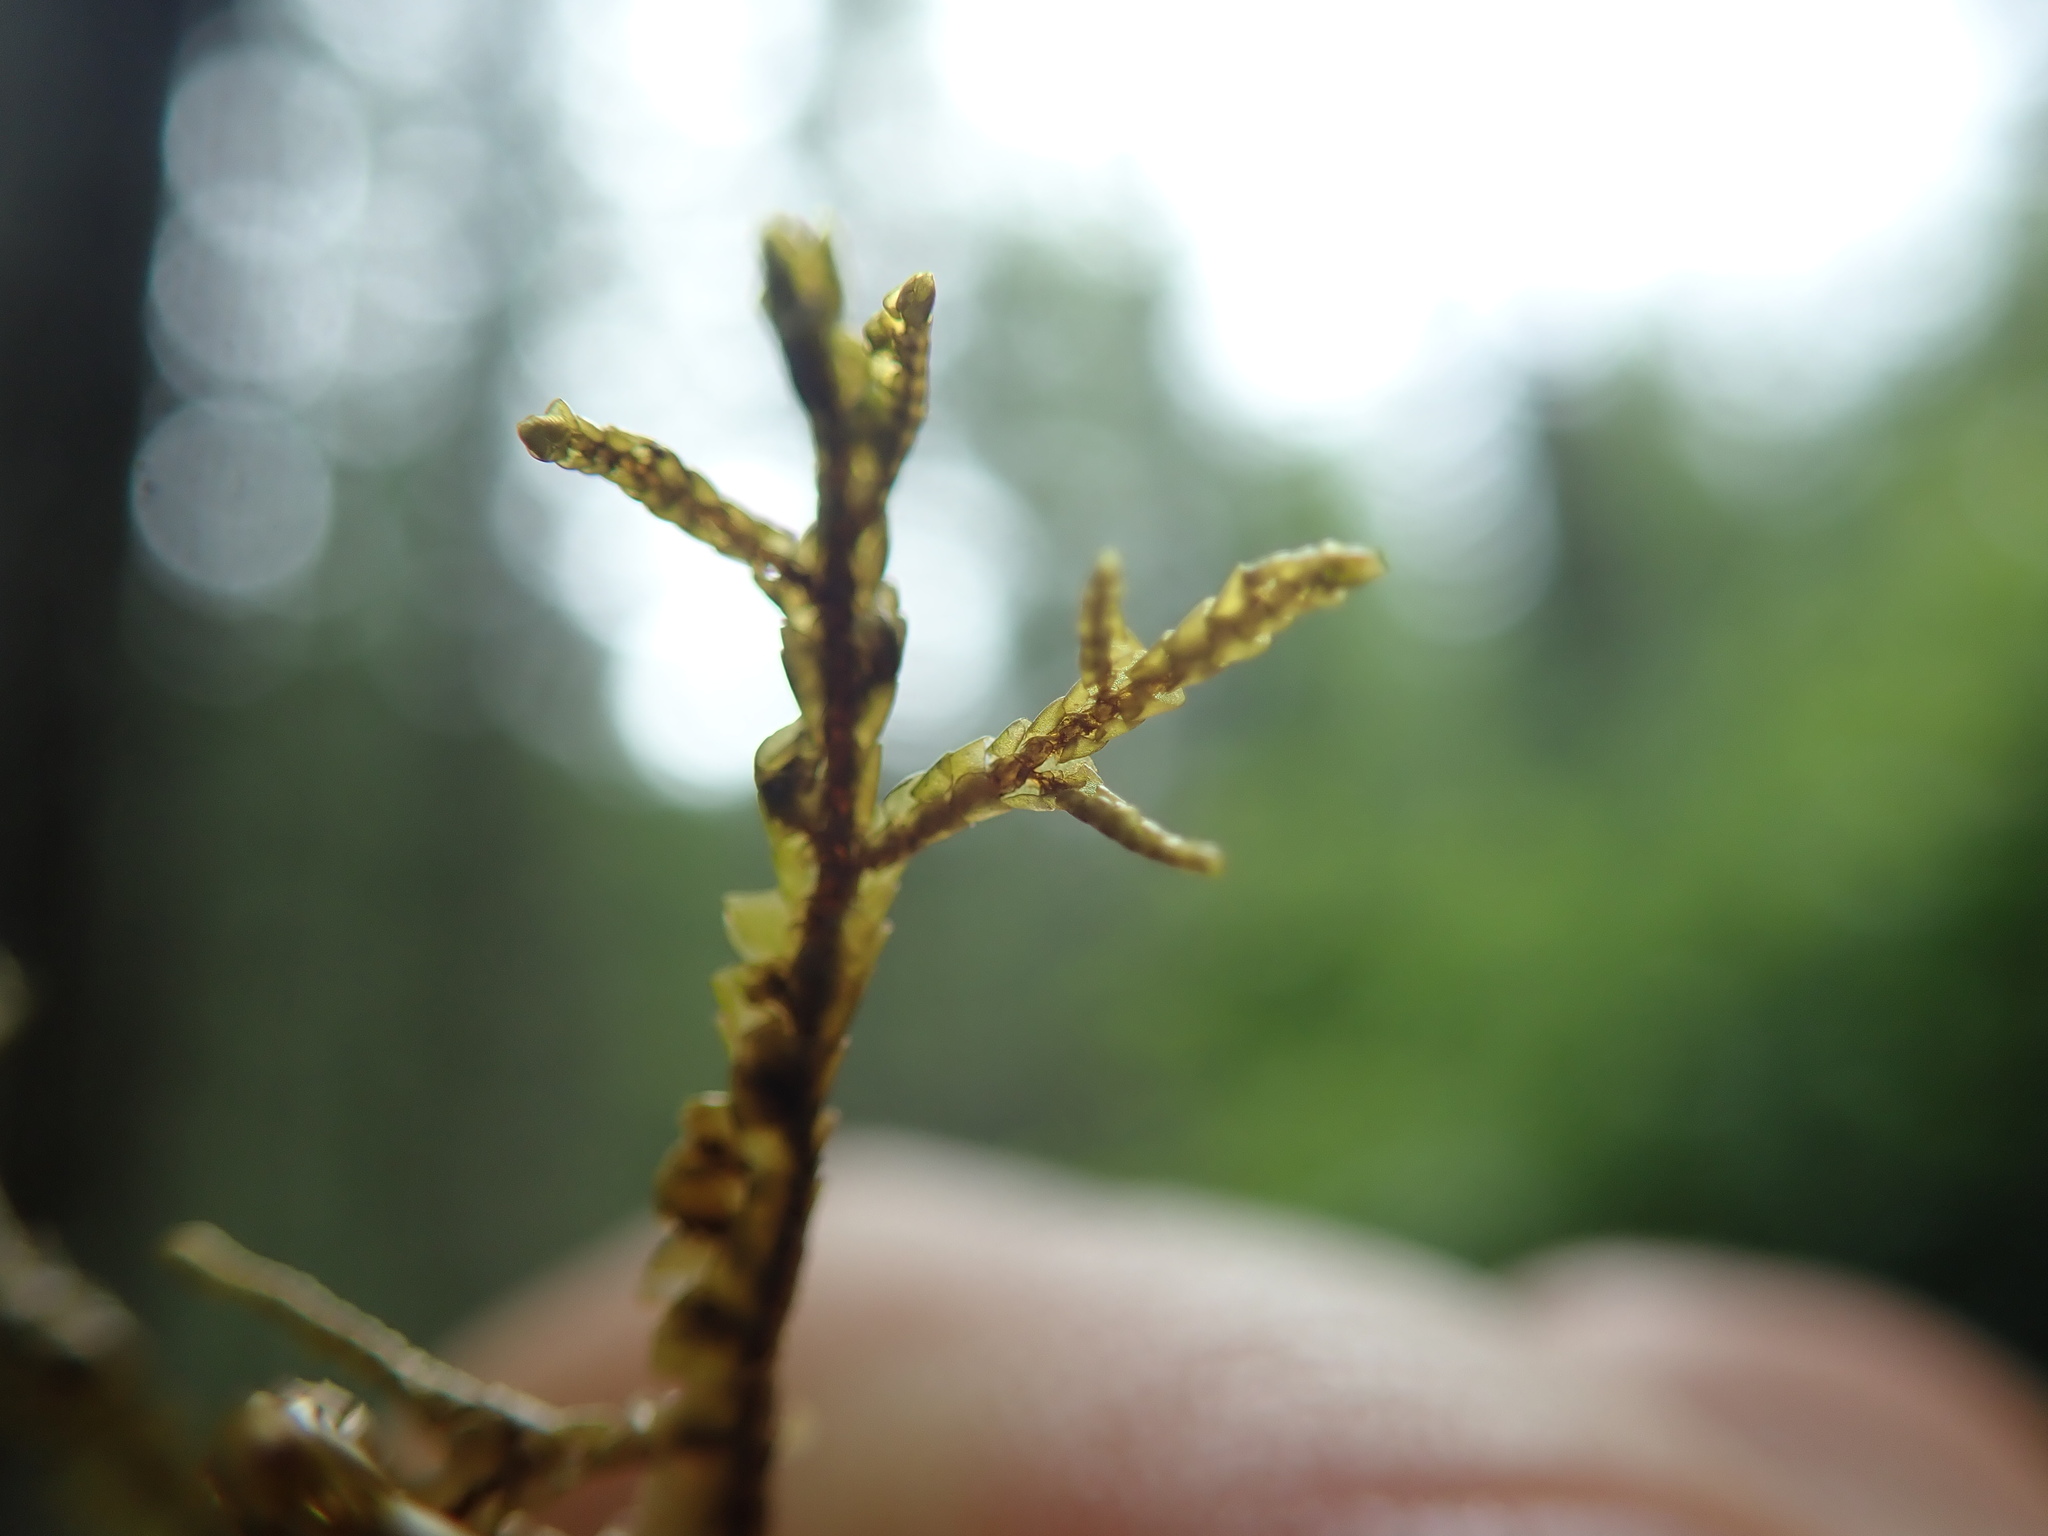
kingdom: Plantae
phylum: Marchantiophyta
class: Jungermanniopsida
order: Porellales
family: Porellaceae
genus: Porella
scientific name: Porella roellii
